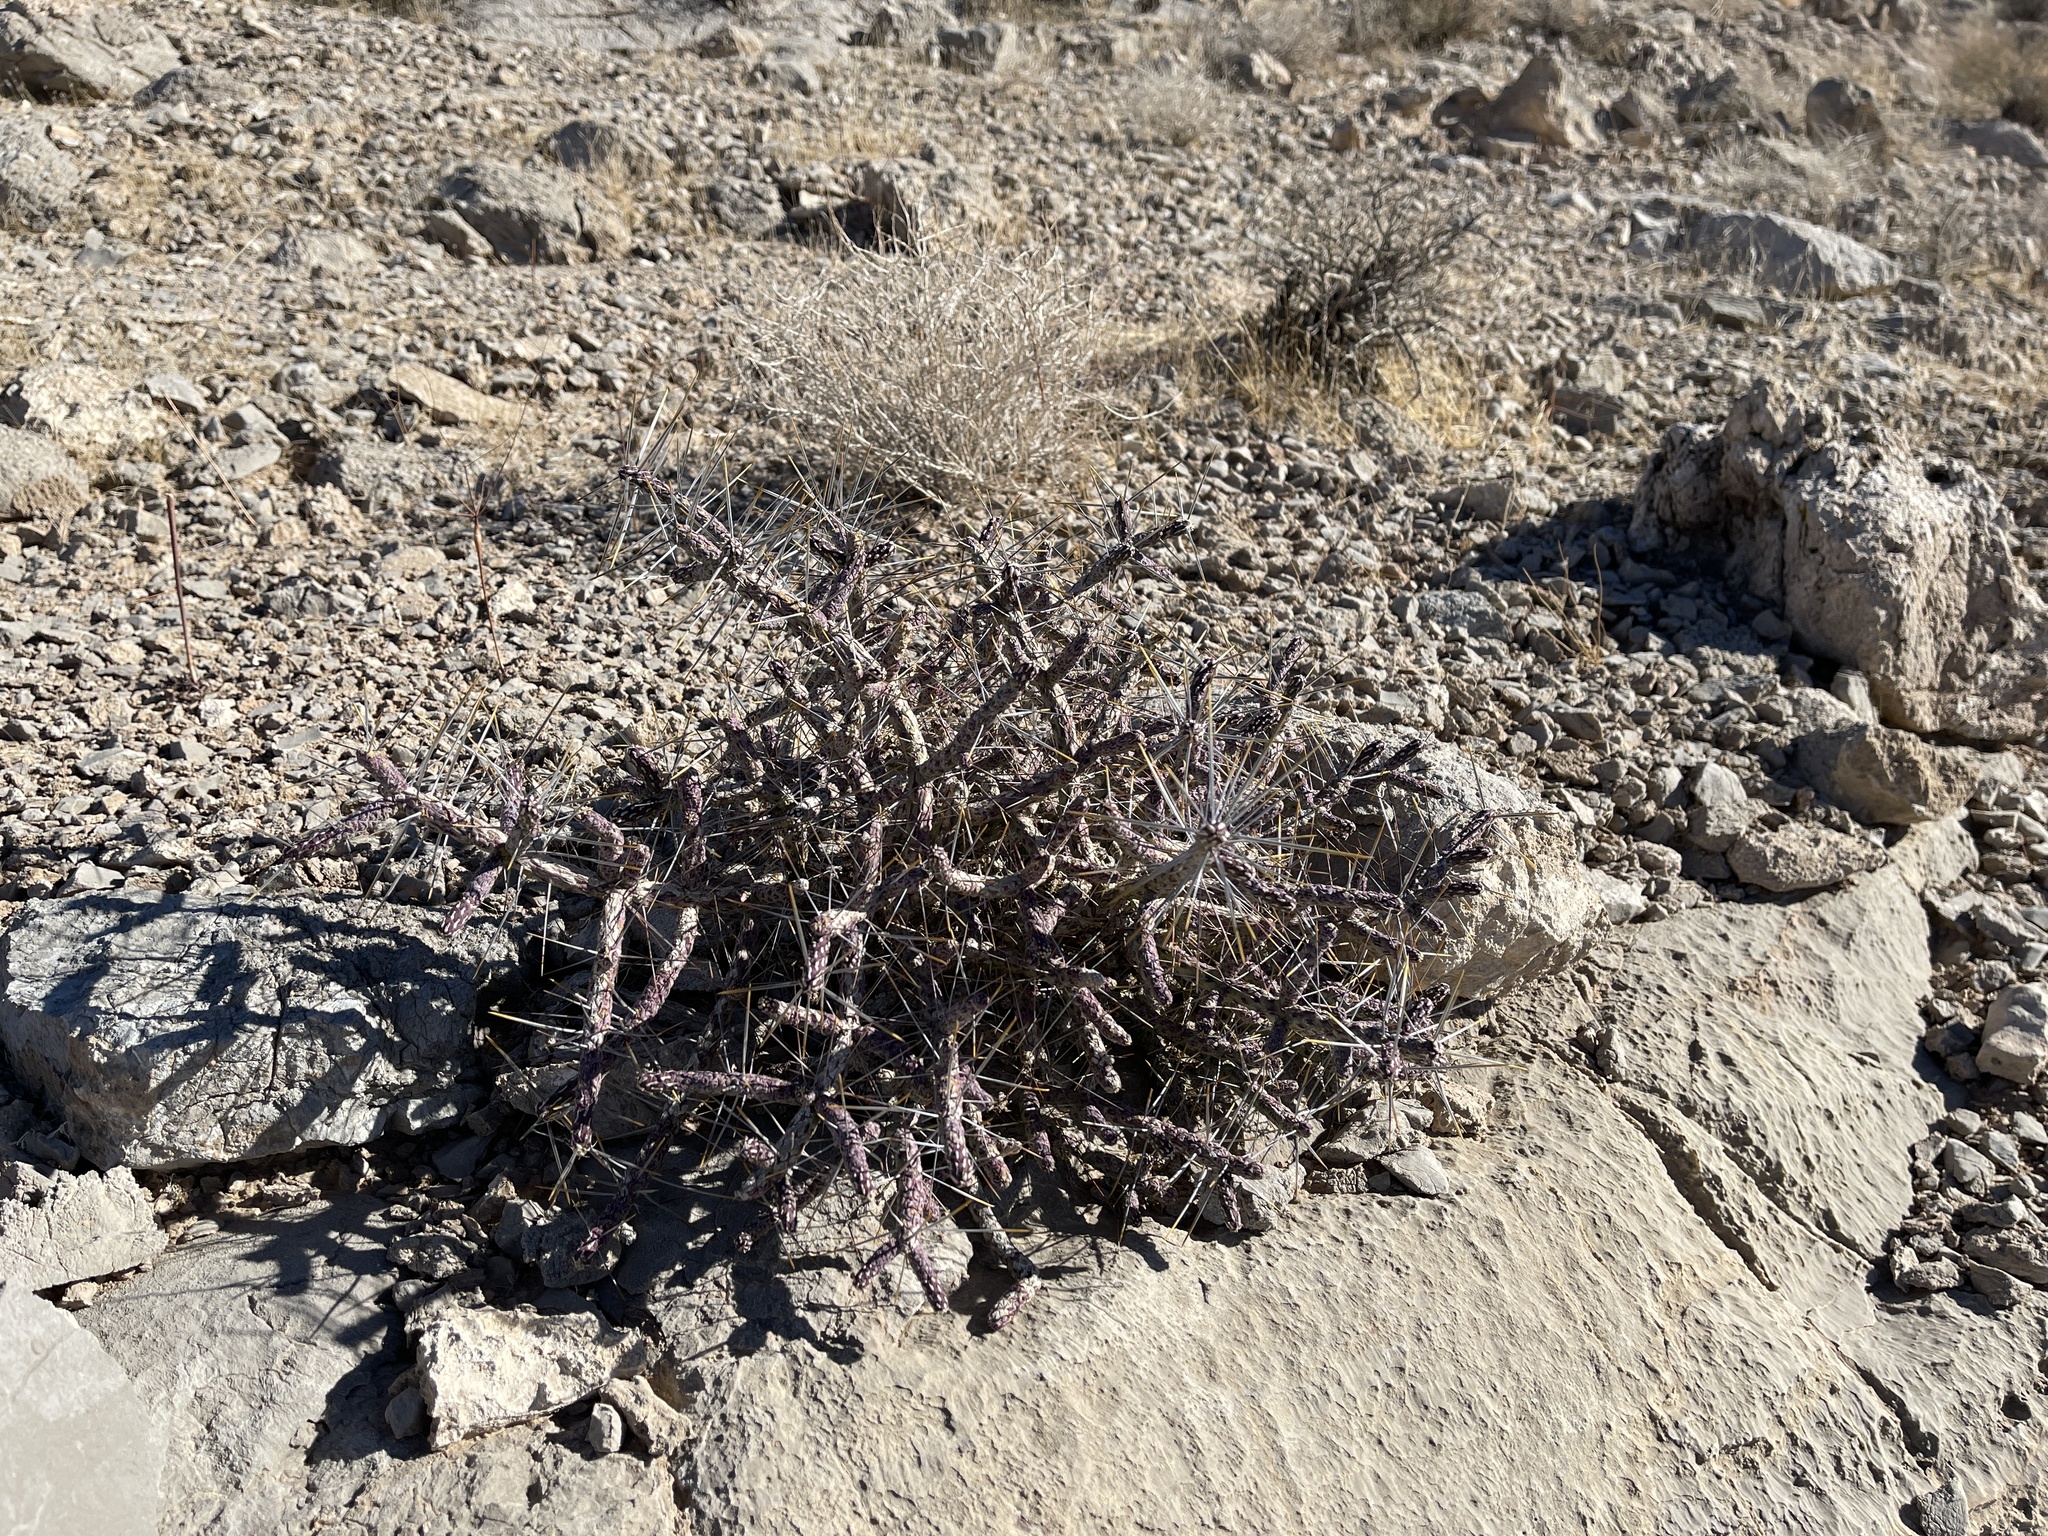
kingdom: Plantae
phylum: Tracheophyta
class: Magnoliopsida
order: Caryophyllales
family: Cactaceae
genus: Cylindropuntia
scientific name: Cylindropuntia ramosissima
